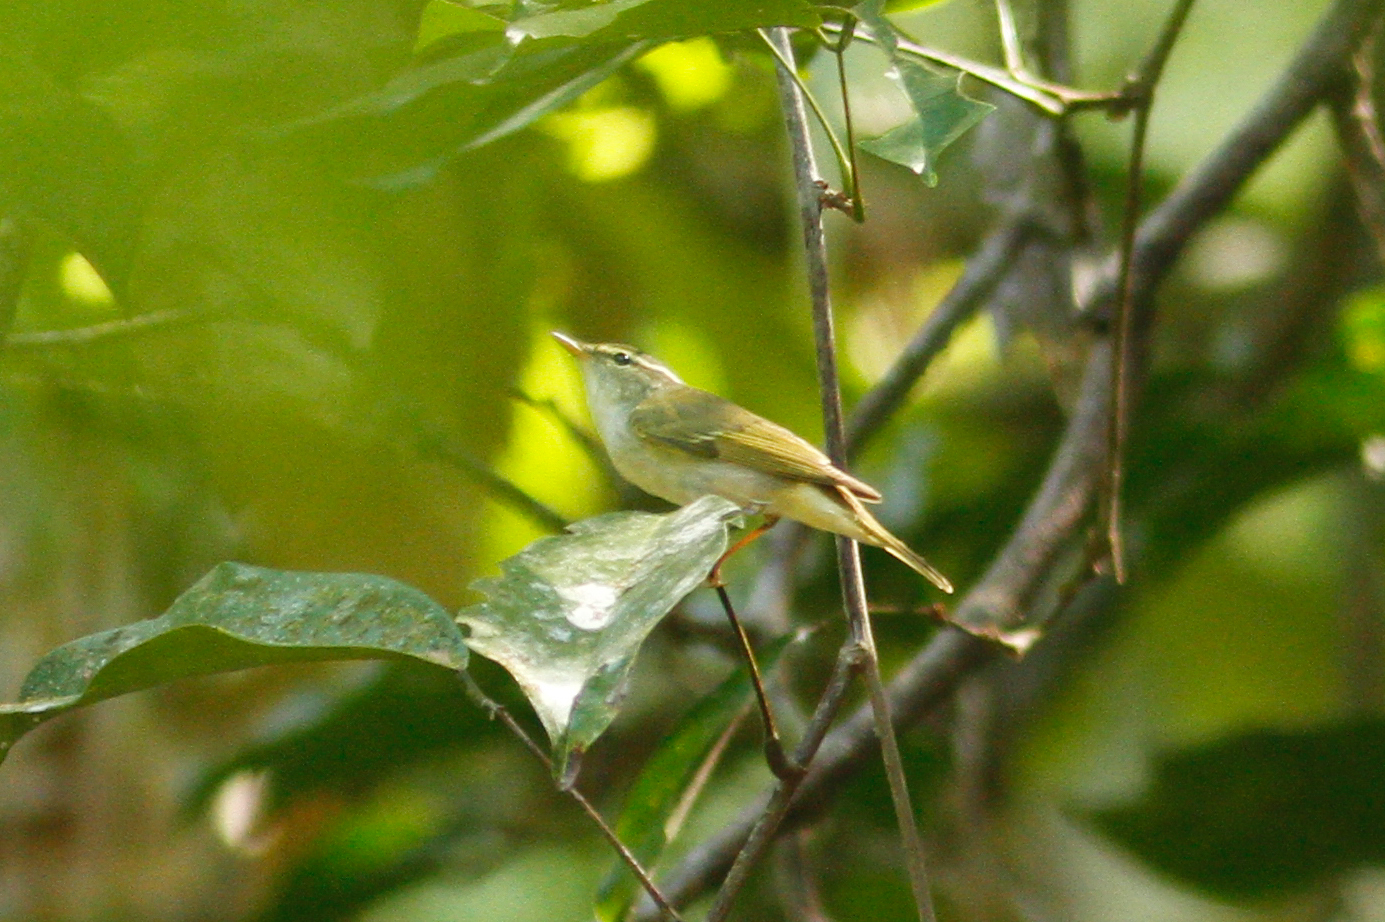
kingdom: Animalia
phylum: Chordata
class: Aves
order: Passeriformes
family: Phylloscopidae
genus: Phylloscopus
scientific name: Phylloscopus coronatus
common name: Eastern crowned warbler
